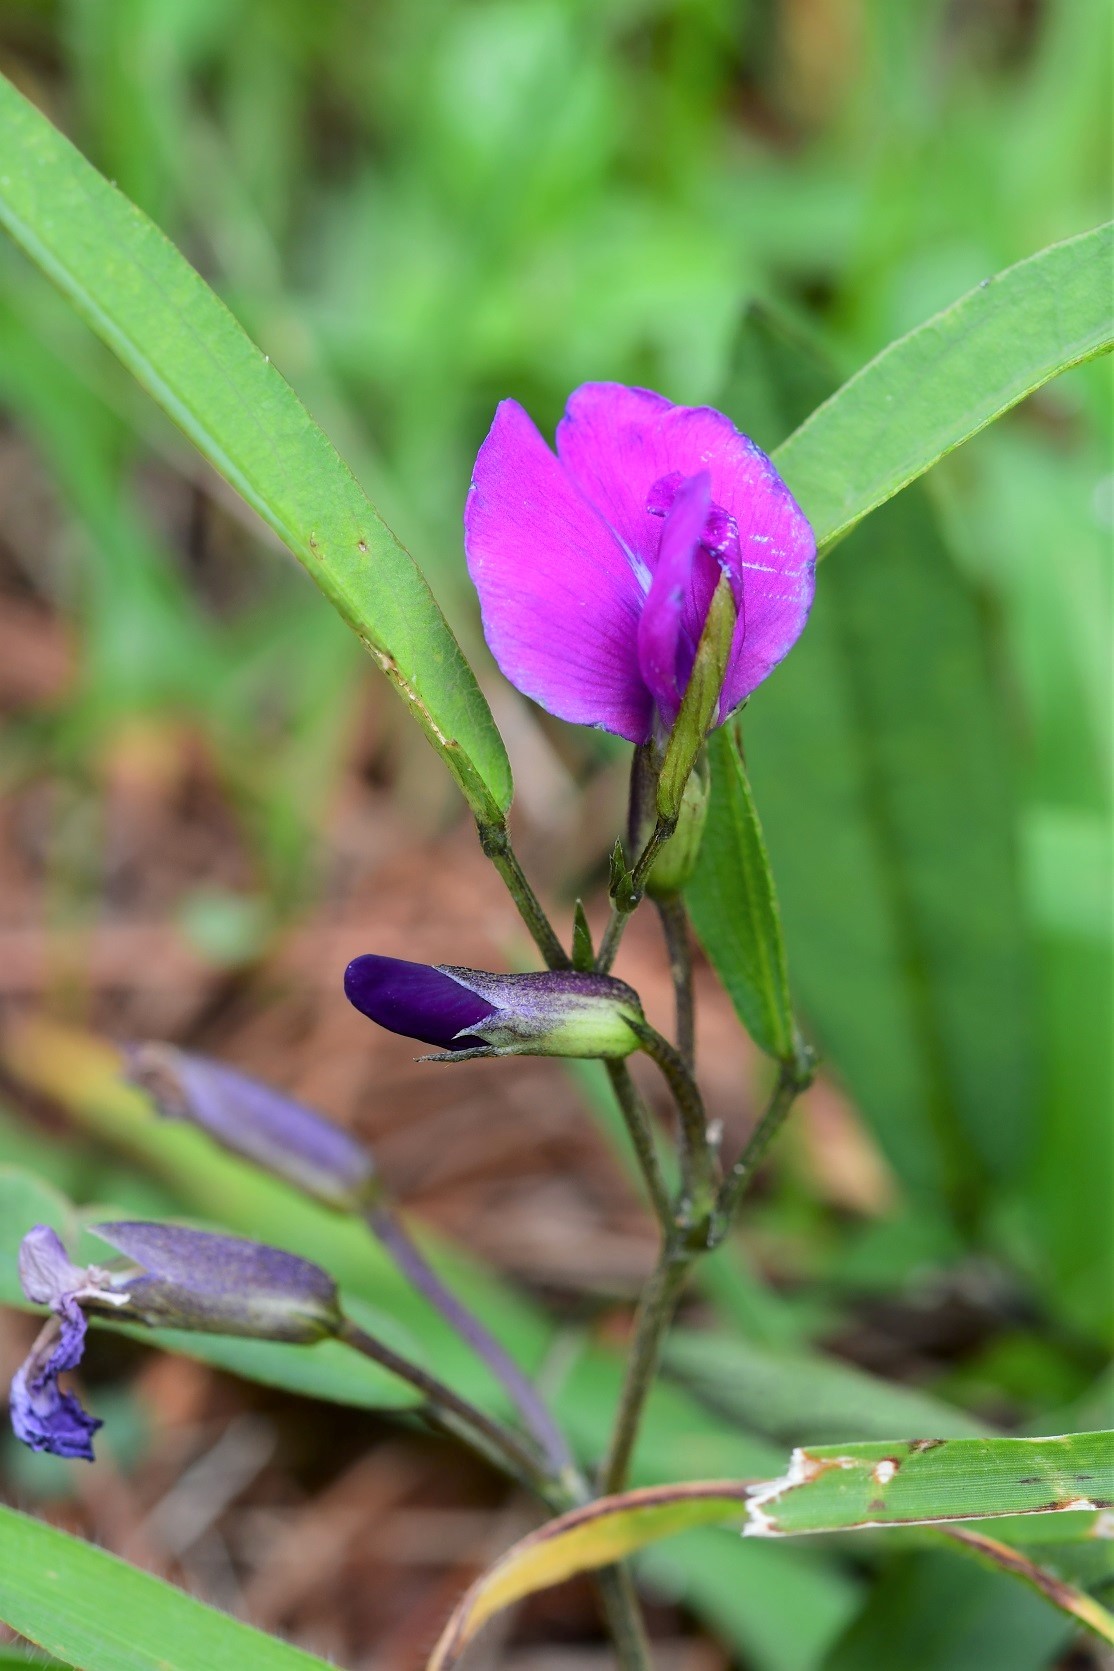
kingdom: Plantae
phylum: Tracheophyta
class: Magnoliopsida
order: Fabales
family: Fabaceae
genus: Cologania
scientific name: Cologania procumbens
